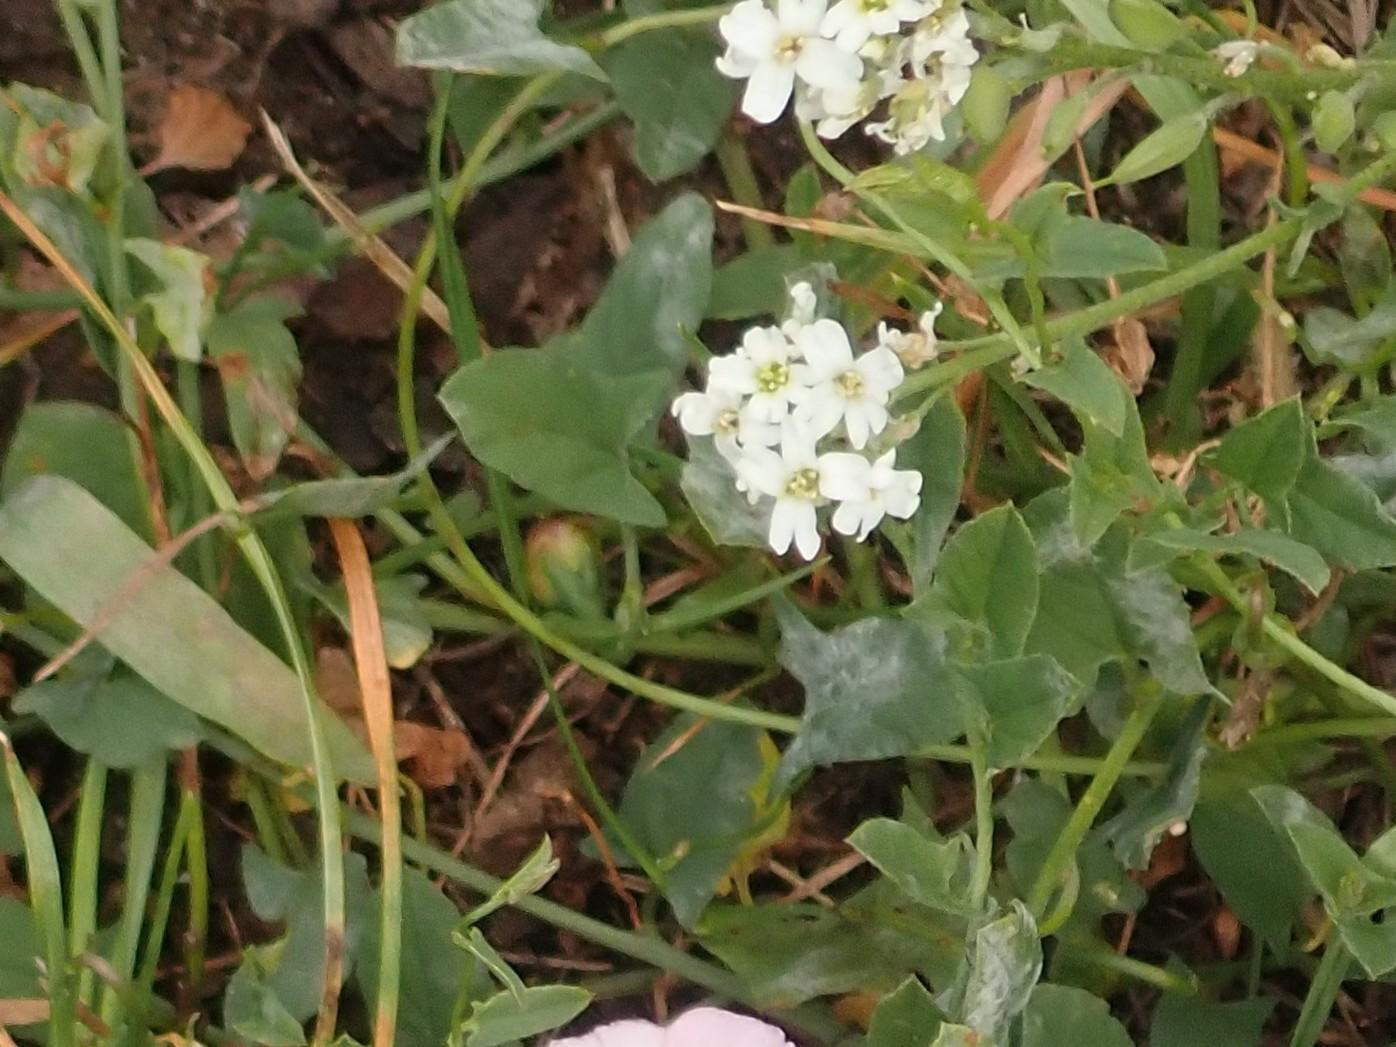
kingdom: Plantae
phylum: Tracheophyta
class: Magnoliopsida
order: Brassicales
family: Brassicaceae
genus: Berteroa
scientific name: Berteroa incana
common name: Hoary alison
